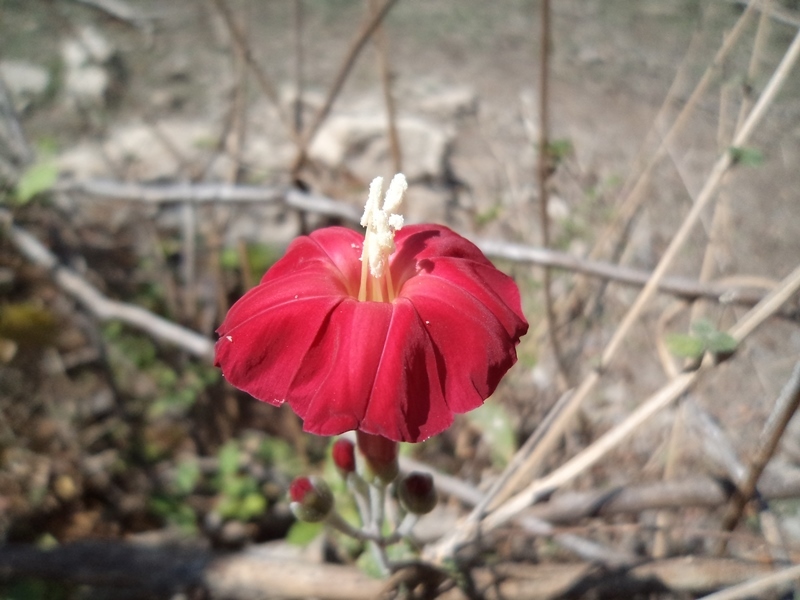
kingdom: Plantae
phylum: Tracheophyta
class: Magnoliopsida
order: Solanales
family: Convolvulaceae
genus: Ipomoea
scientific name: Ipomoea conzattii
